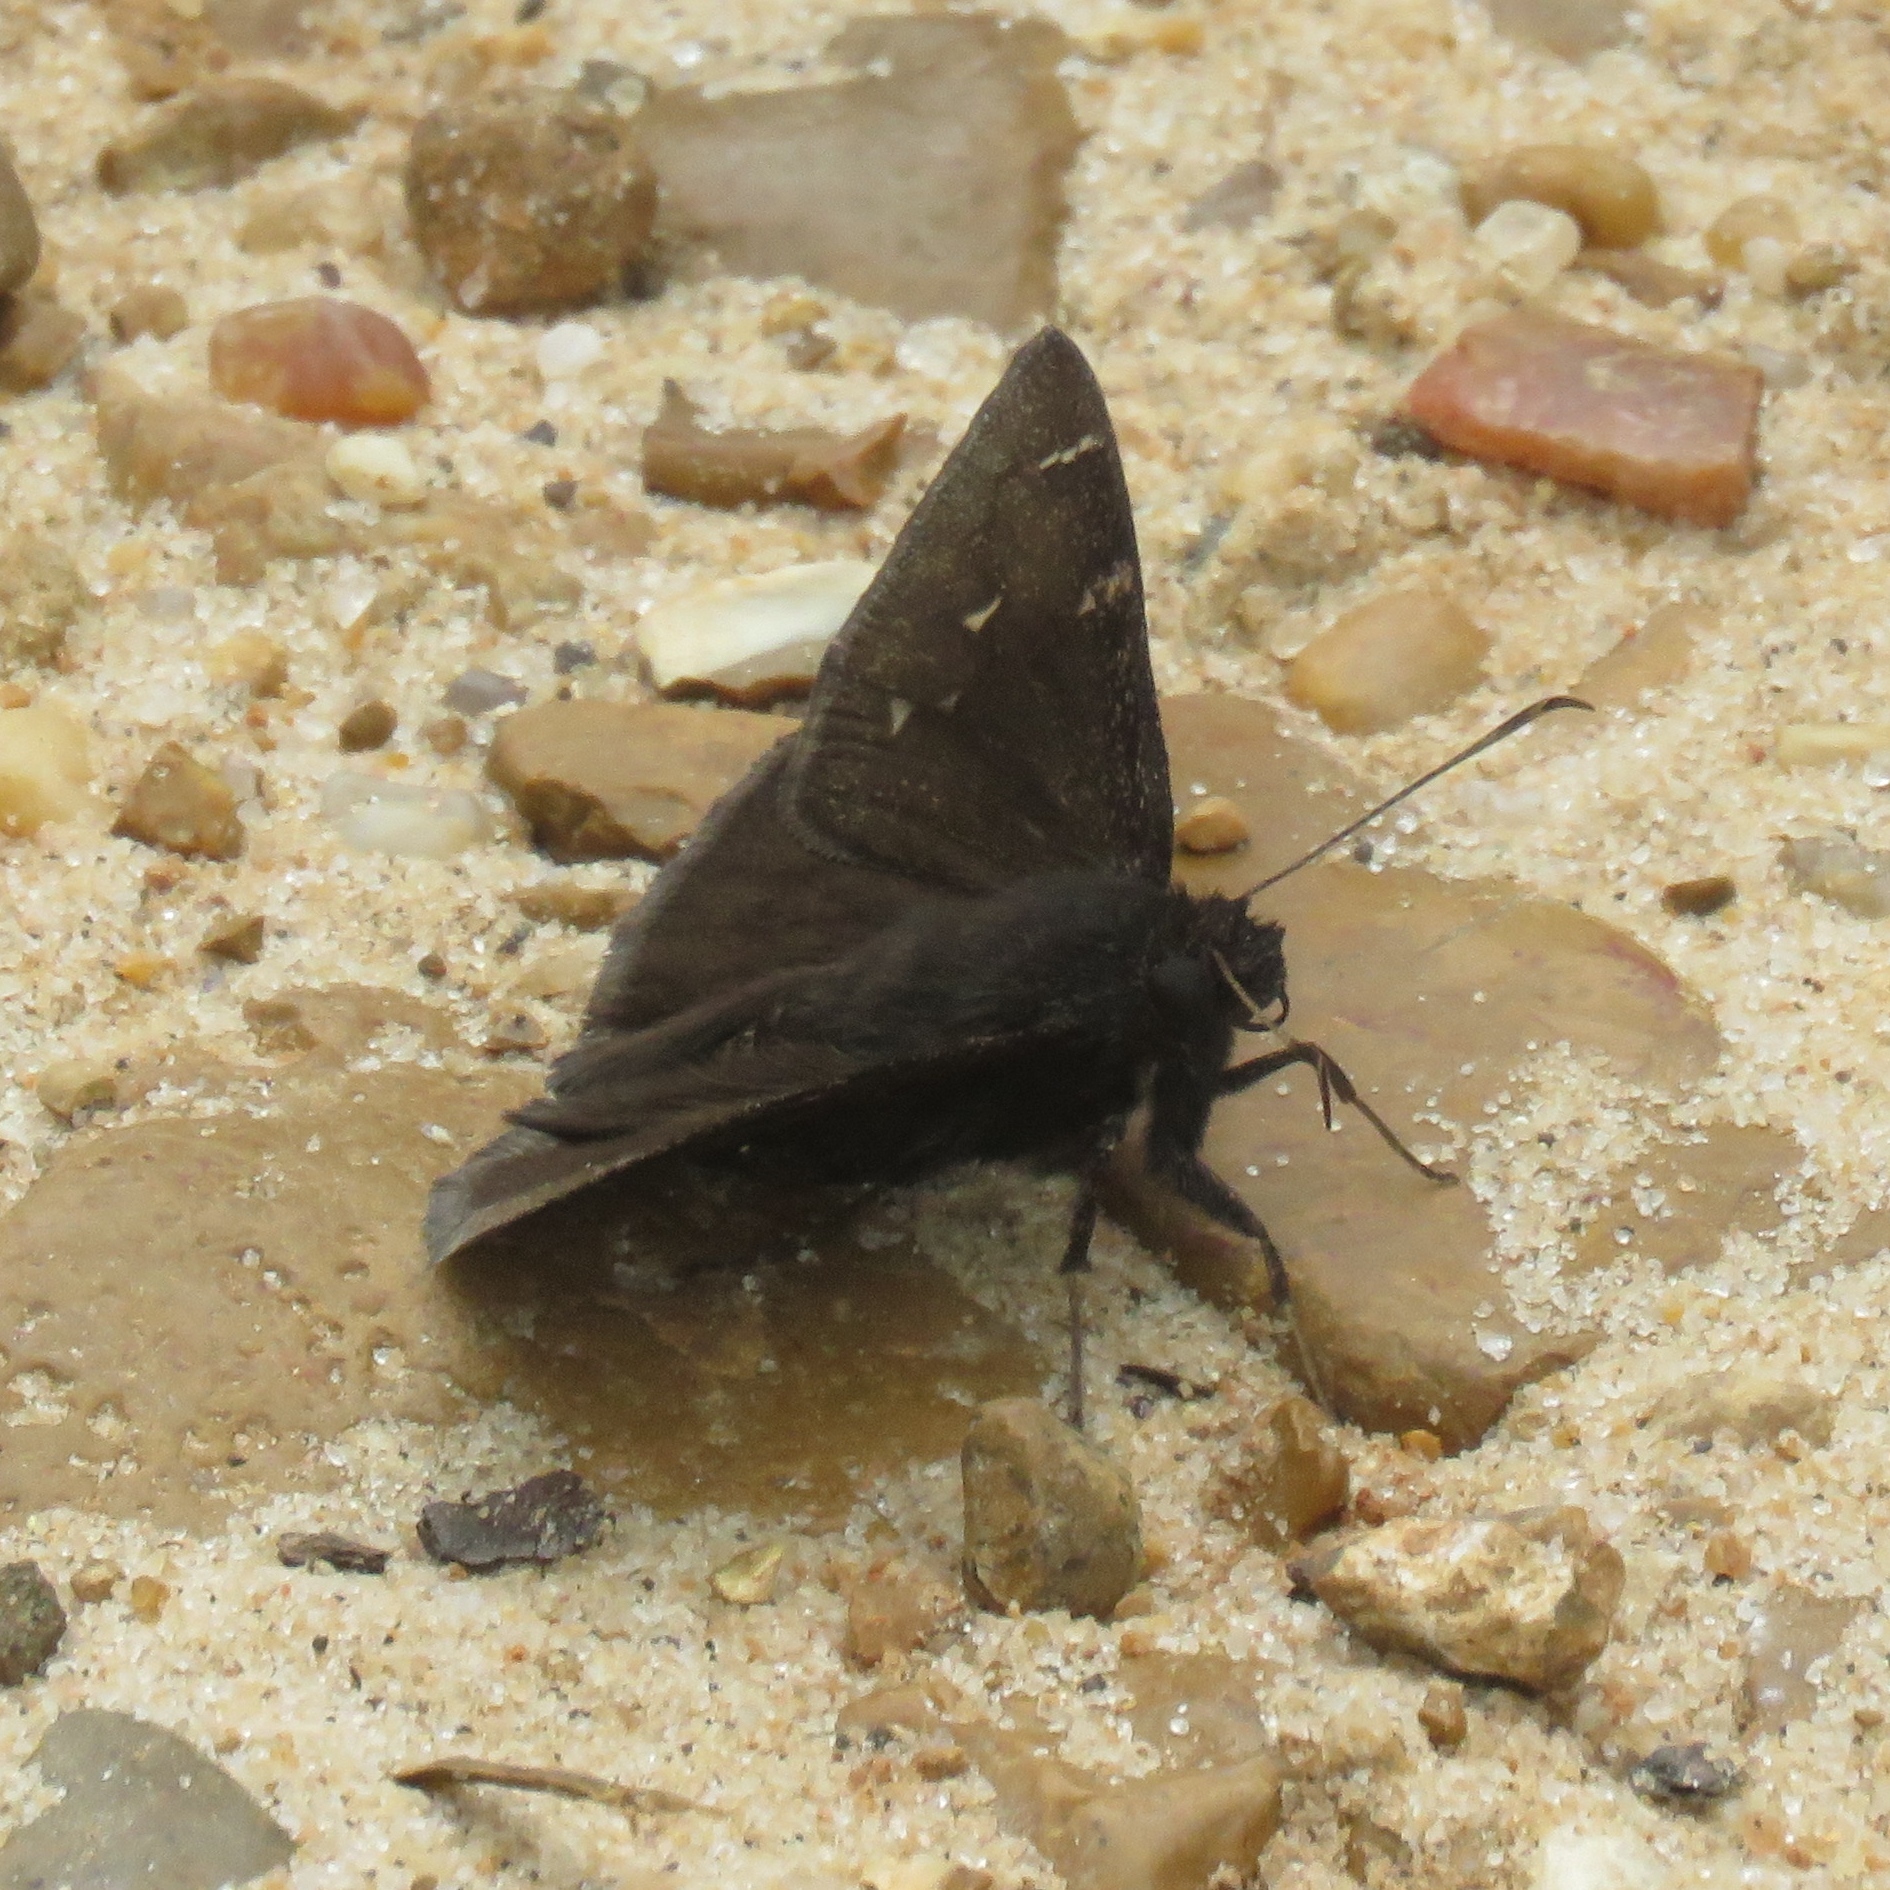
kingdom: Animalia
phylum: Arthropoda
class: Insecta
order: Lepidoptera
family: Hesperiidae
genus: Thorybes
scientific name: Thorybes pylades
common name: Northern cloudywing
